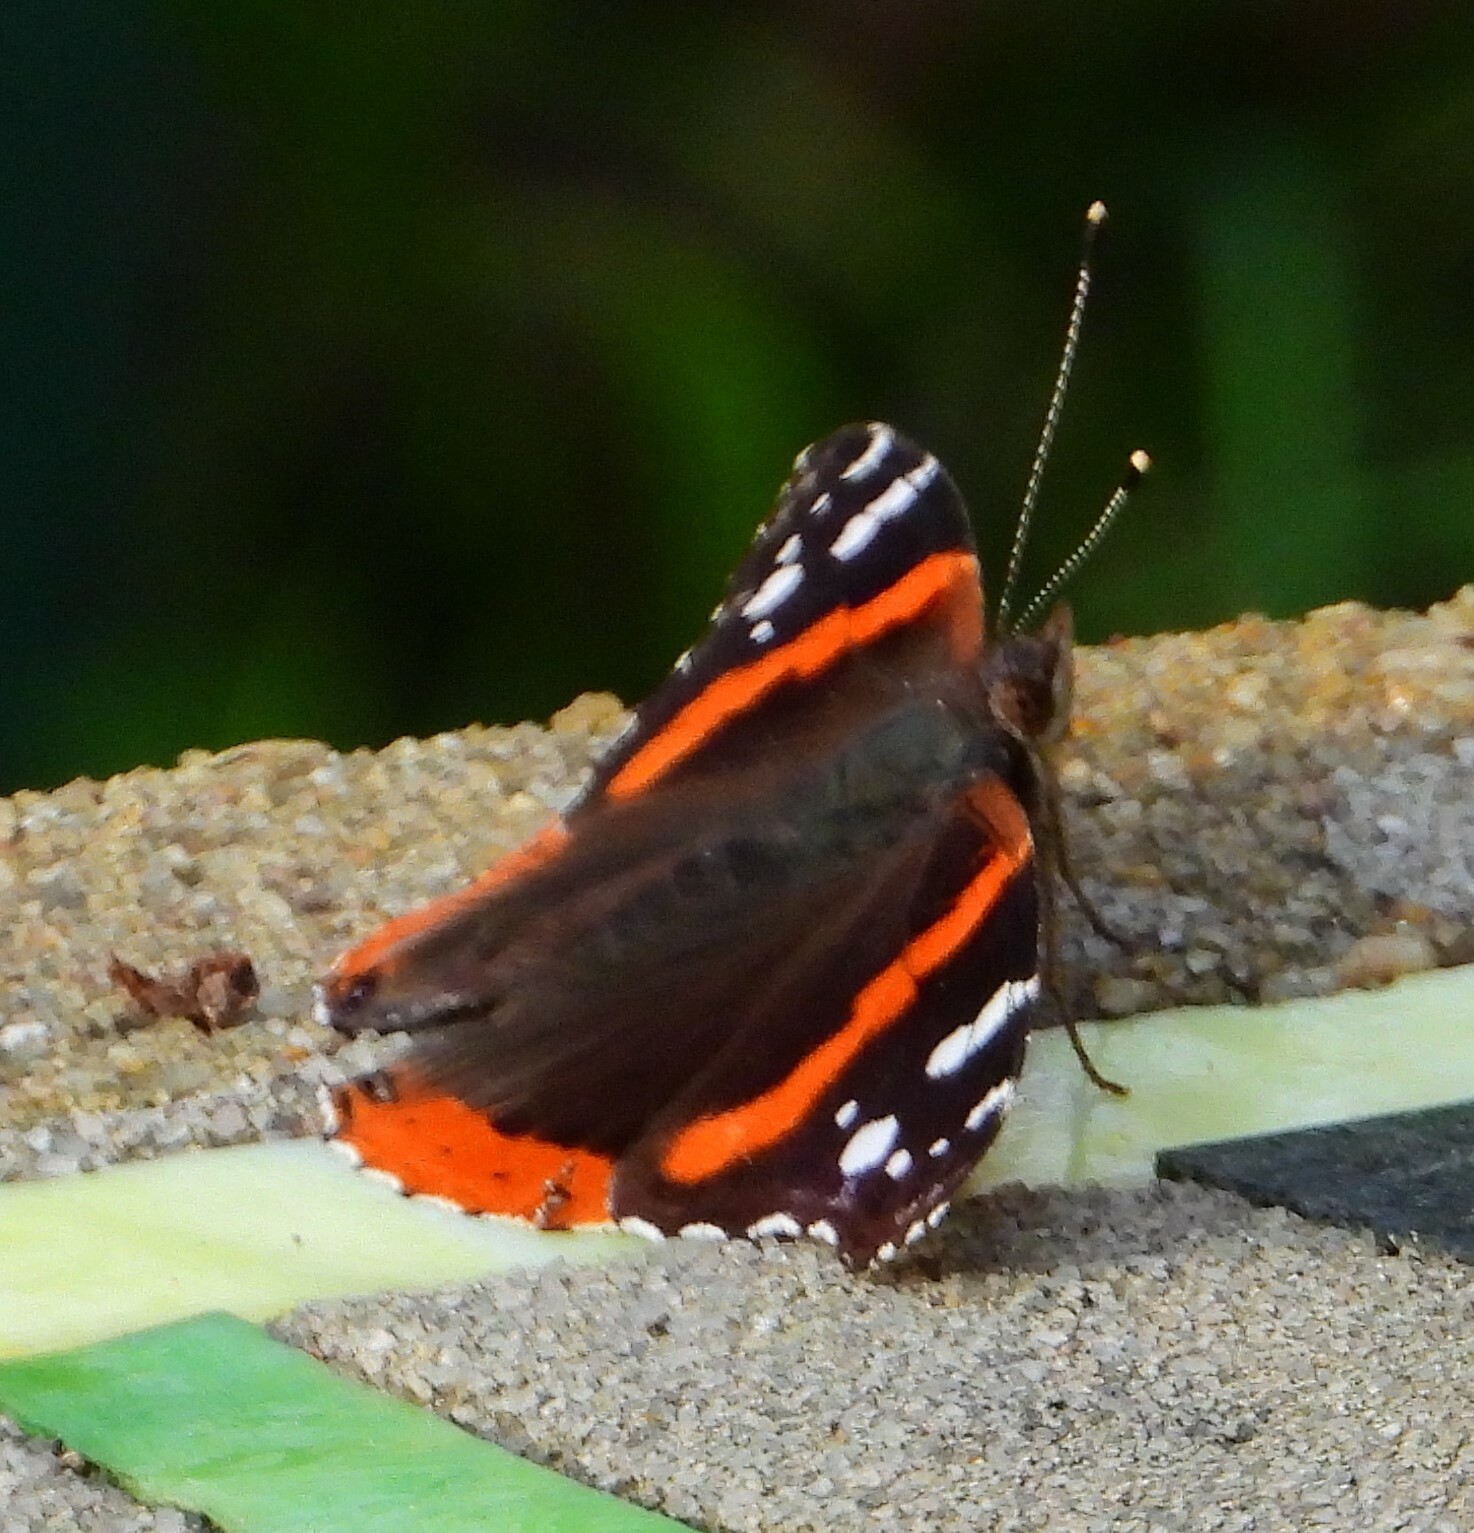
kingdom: Animalia
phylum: Arthropoda
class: Insecta
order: Lepidoptera
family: Nymphalidae
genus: Vanessa
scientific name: Vanessa atalanta
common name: Red admiral
